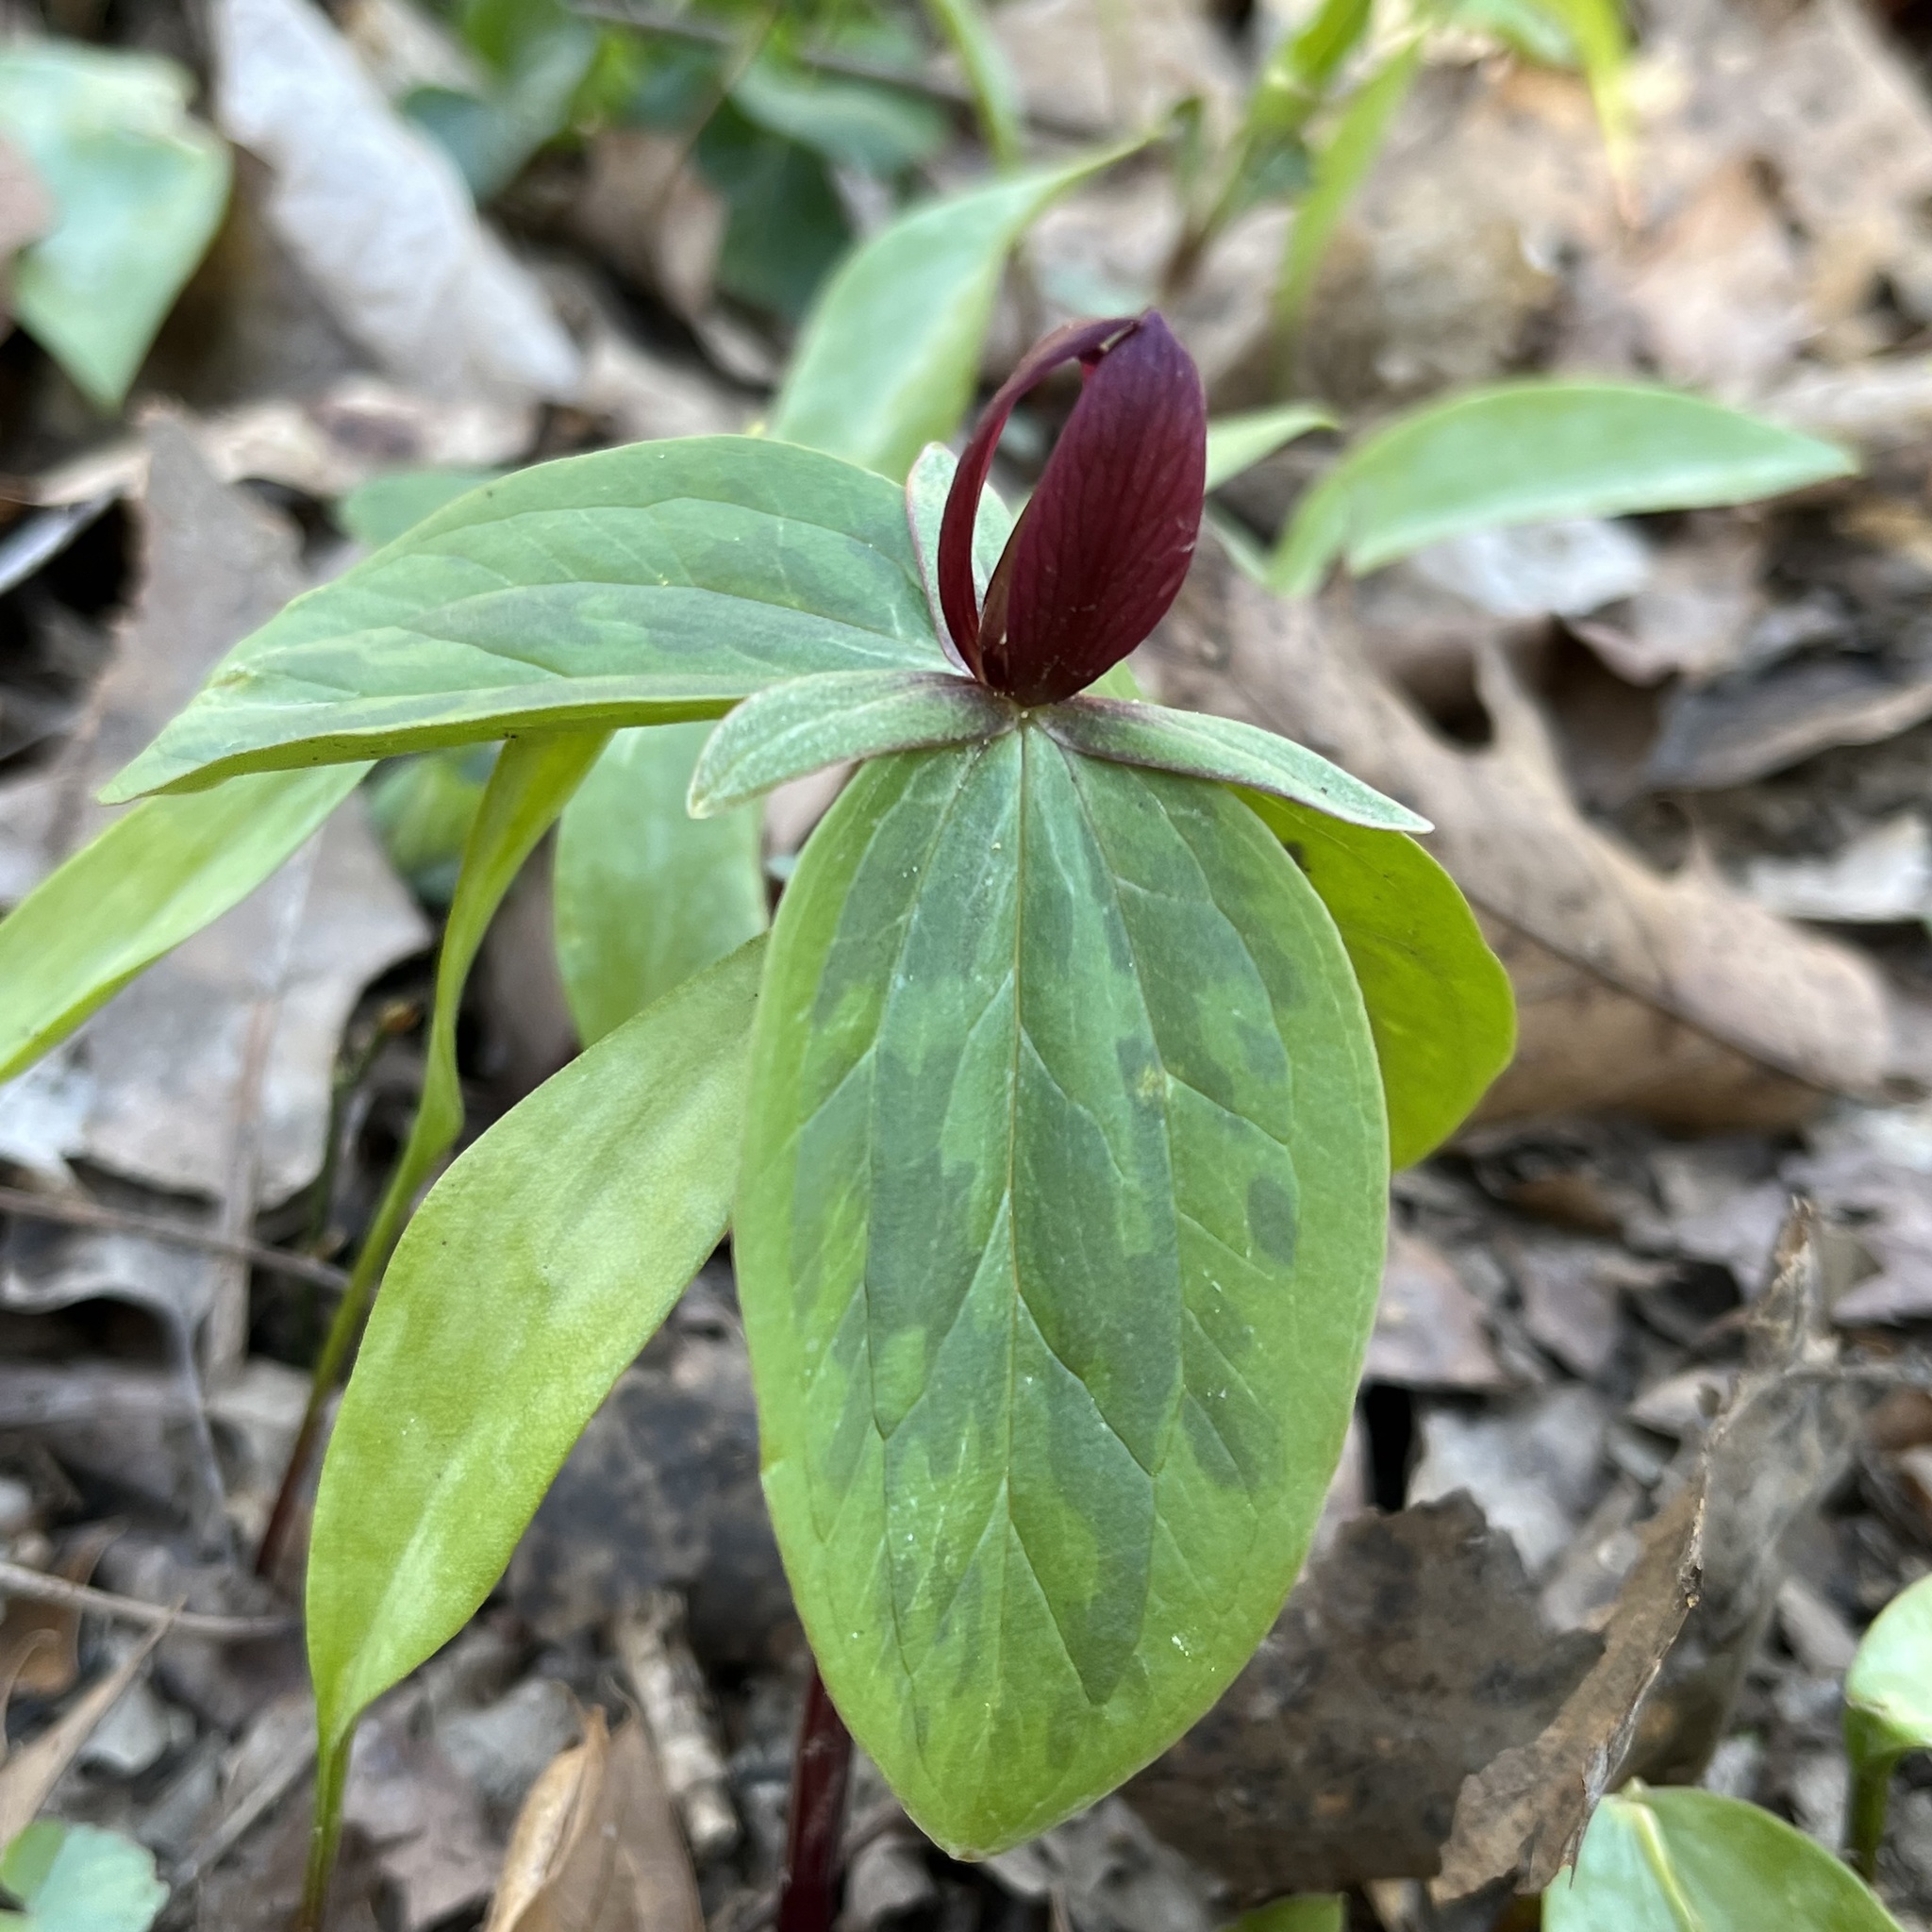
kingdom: Plantae
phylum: Tracheophyta
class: Liliopsida
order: Liliales
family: Melanthiaceae
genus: Trillium
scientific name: Trillium sessile
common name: Sessile trillium
